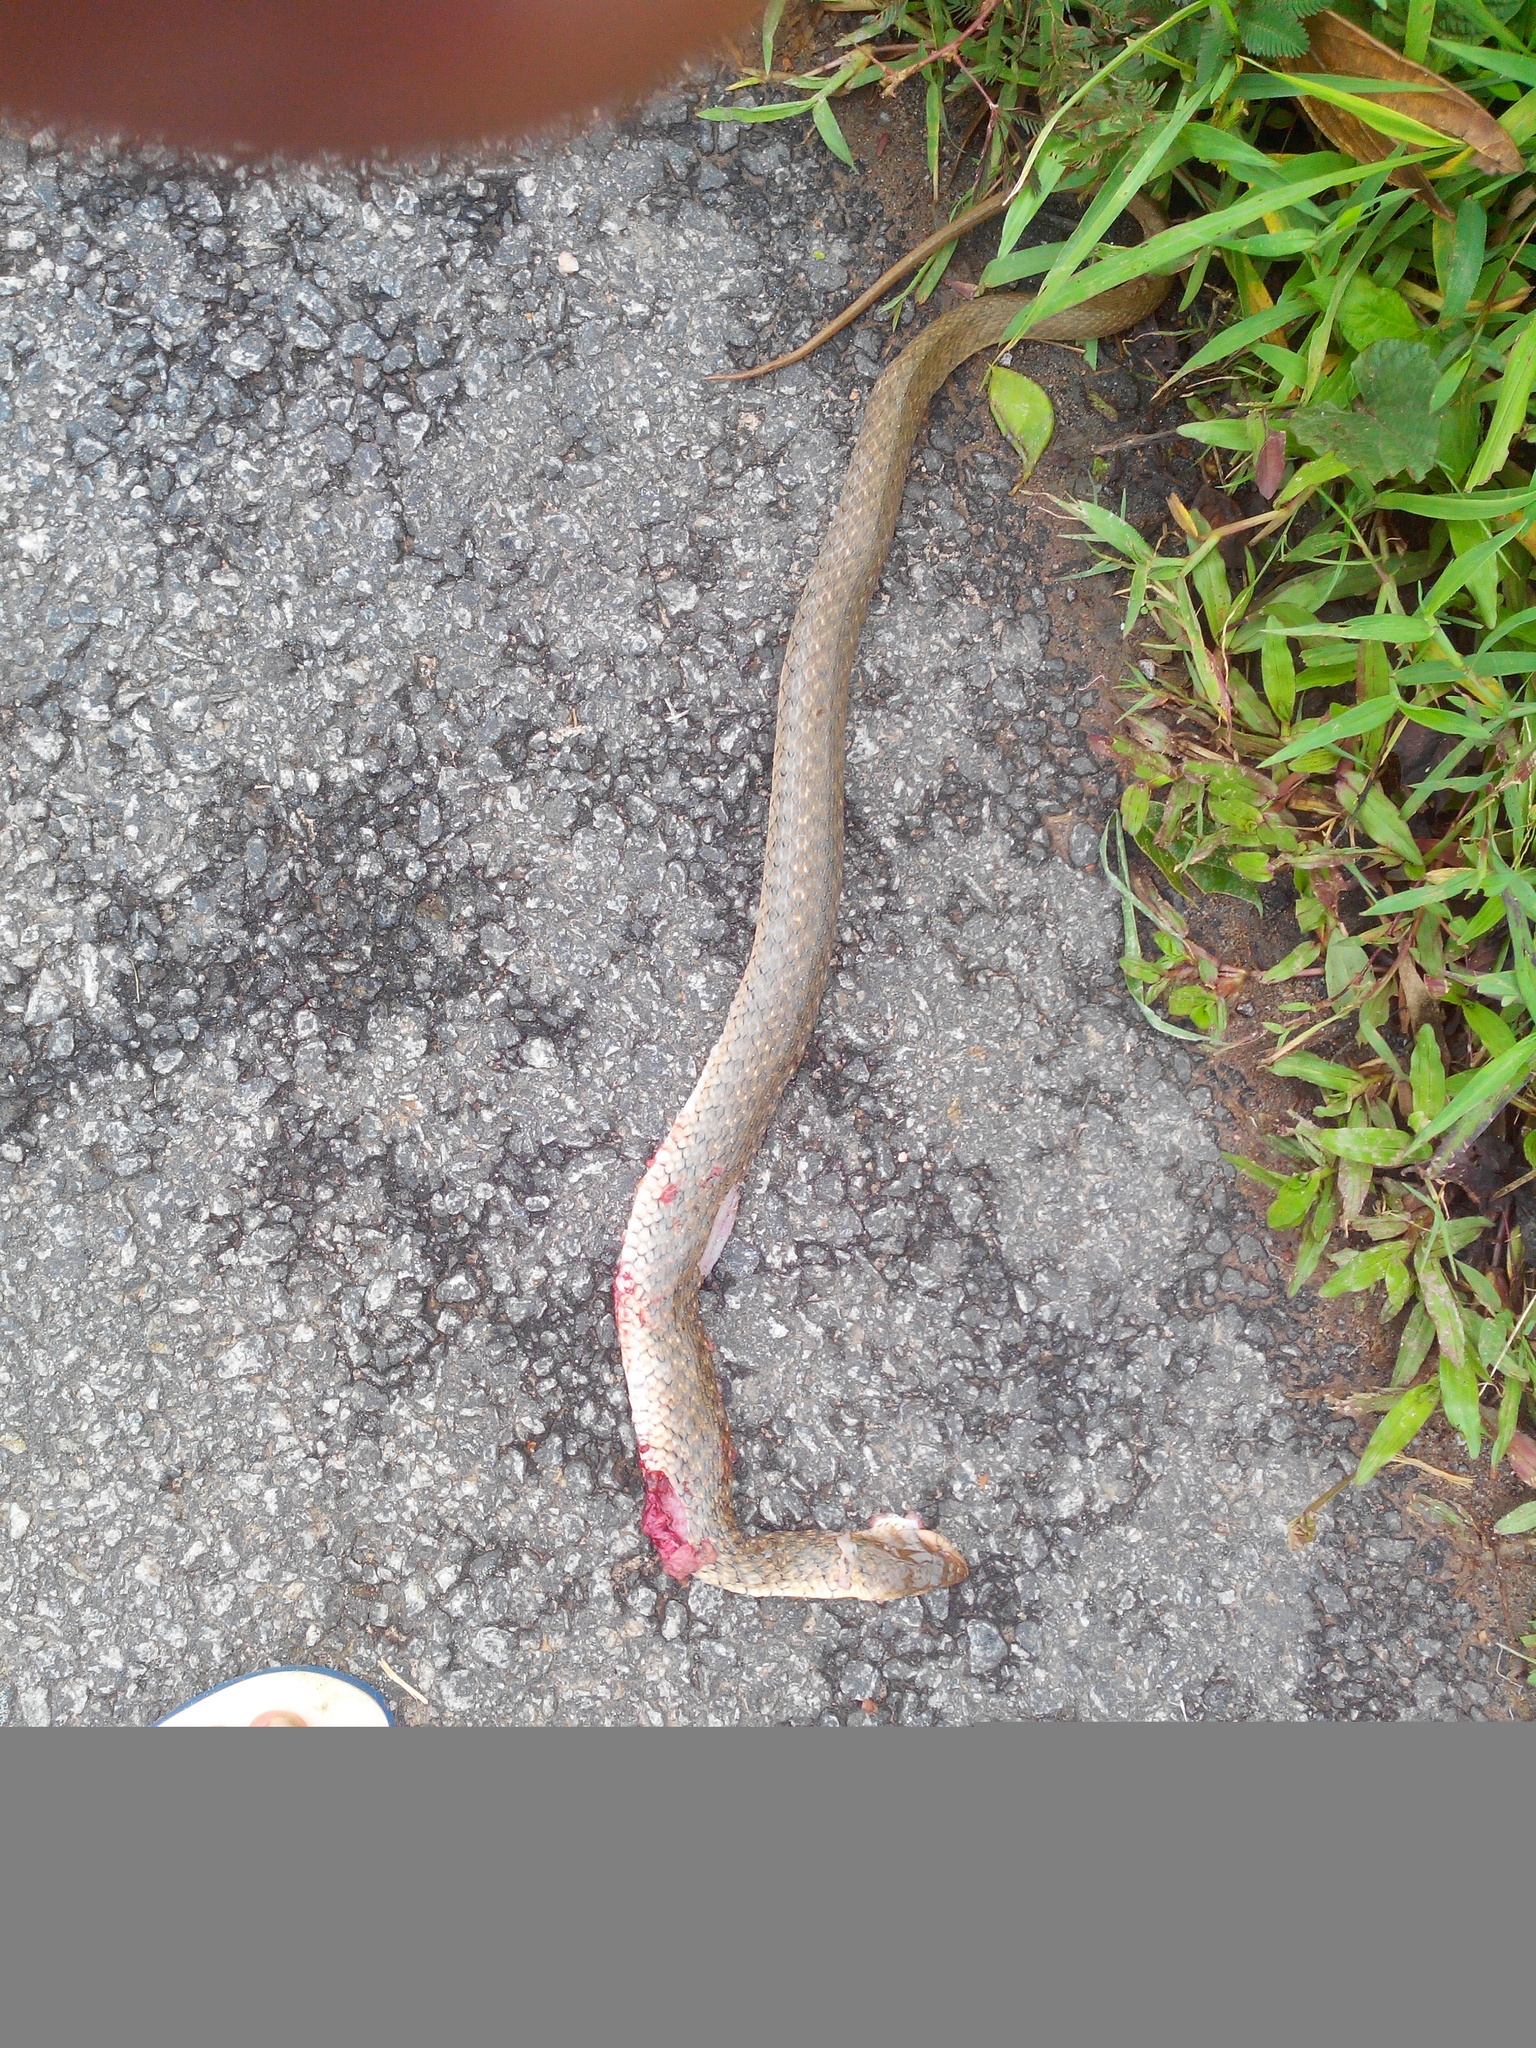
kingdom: Animalia
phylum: Chordata
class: Squamata
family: Colubridae
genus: Fowlea
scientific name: Fowlea piscator
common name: Asiatic water snake
